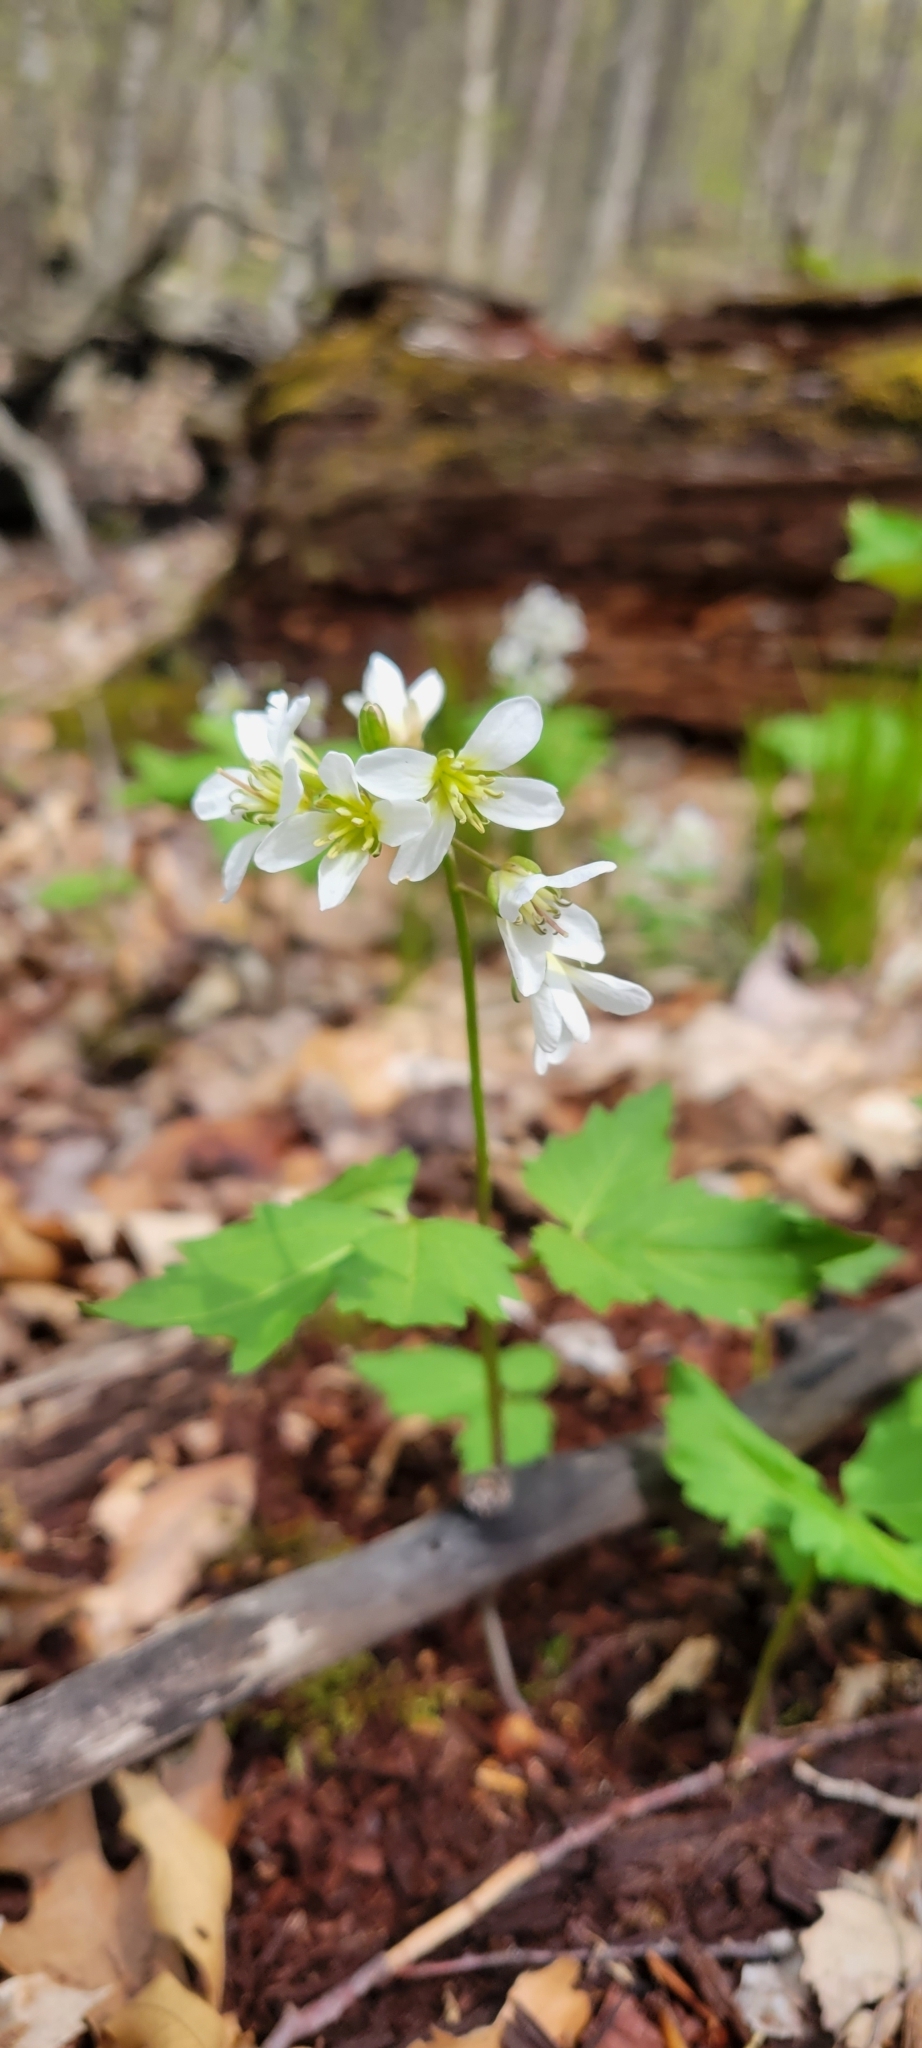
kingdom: Plantae
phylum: Tracheophyta
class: Magnoliopsida
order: Brassicales
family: Brassicaceae
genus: Cardamine
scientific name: Cardamine diphylla
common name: Broad-leaved toothwort
